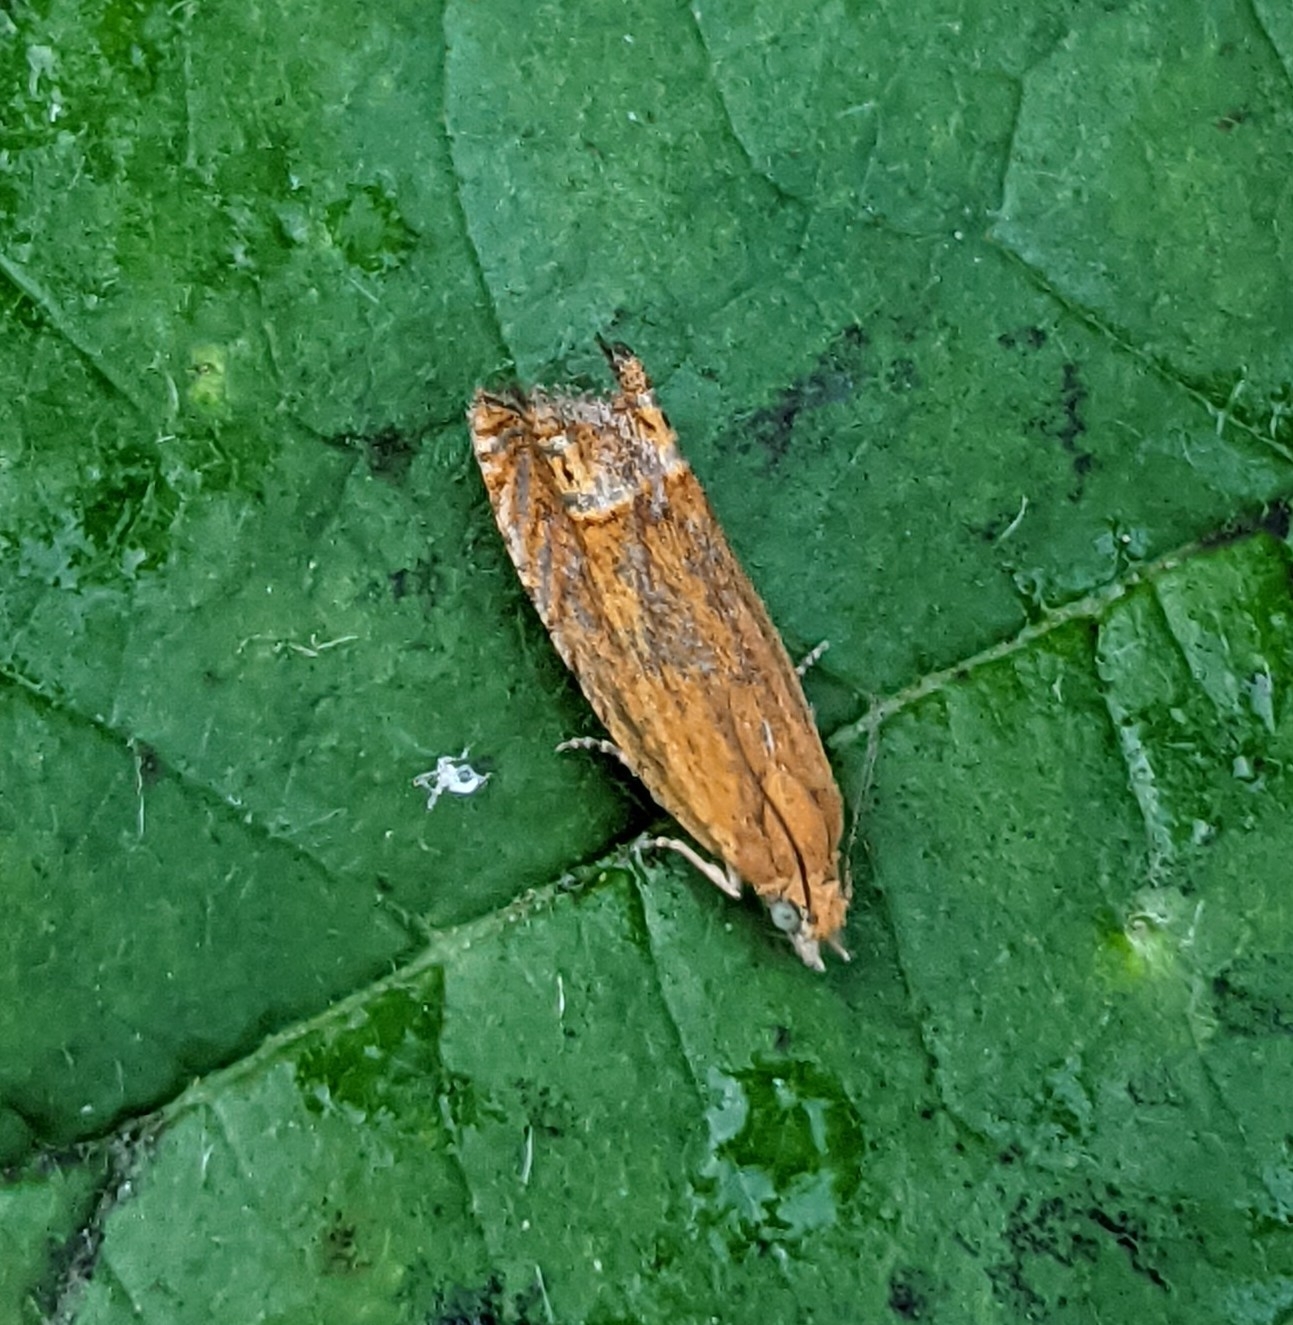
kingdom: Animalia
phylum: Arthropoda
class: Insecta
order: Lepidoptera
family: Tortricidae
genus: Lathronympha
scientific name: Lathronympha strigana
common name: Red piercer
